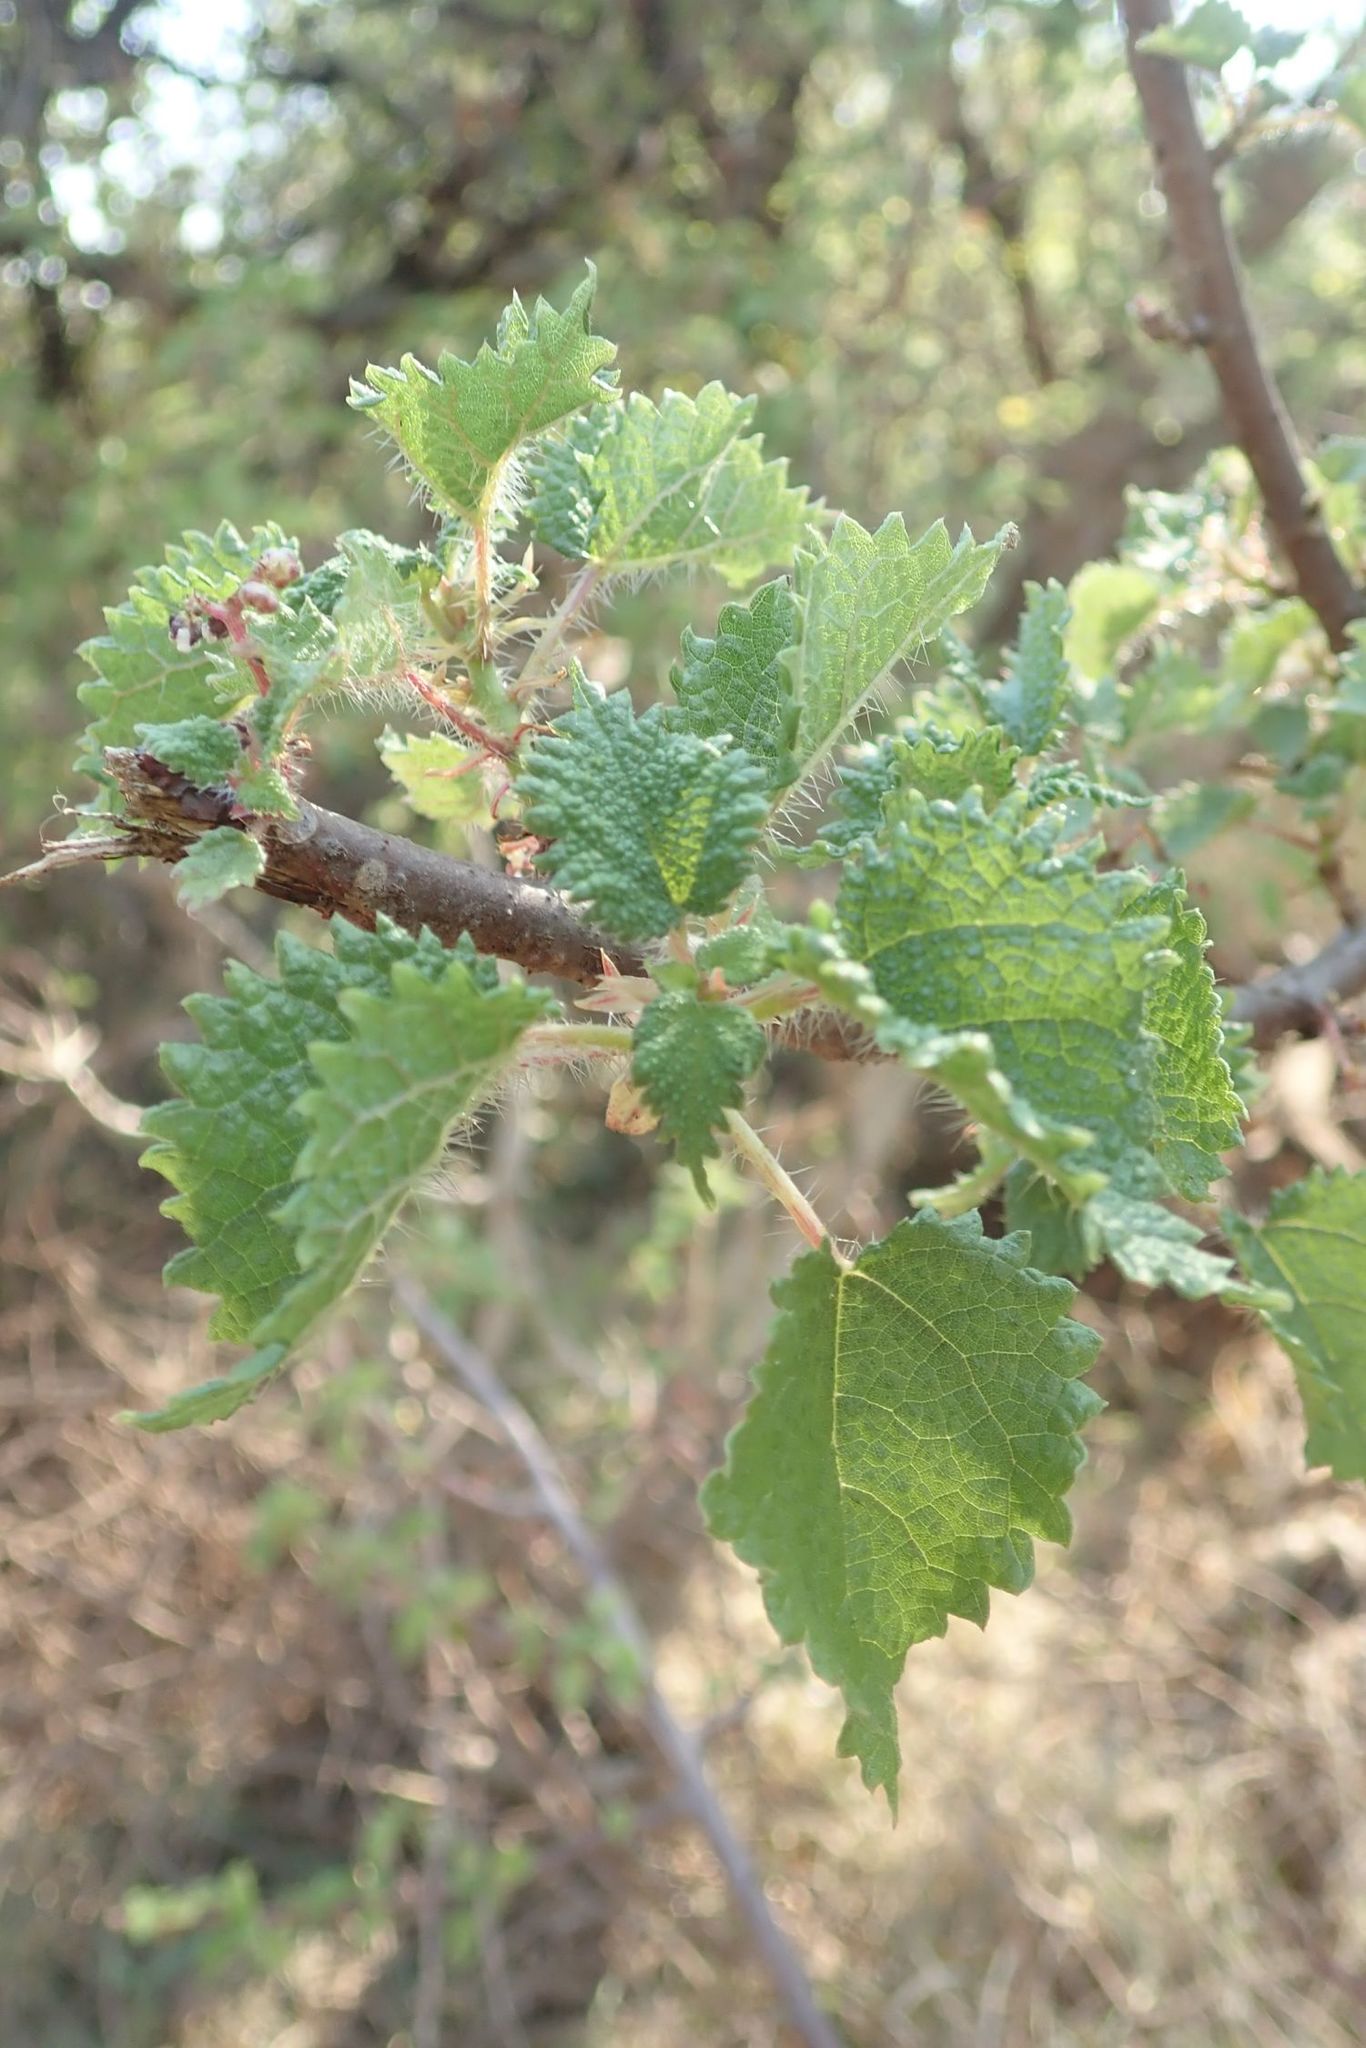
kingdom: Plantae
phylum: Tracheophyta
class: Magnoliopsida
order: Rosales
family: Urticaceae
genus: Obetia
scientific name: Obetia tenax
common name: Rock tree nettle
